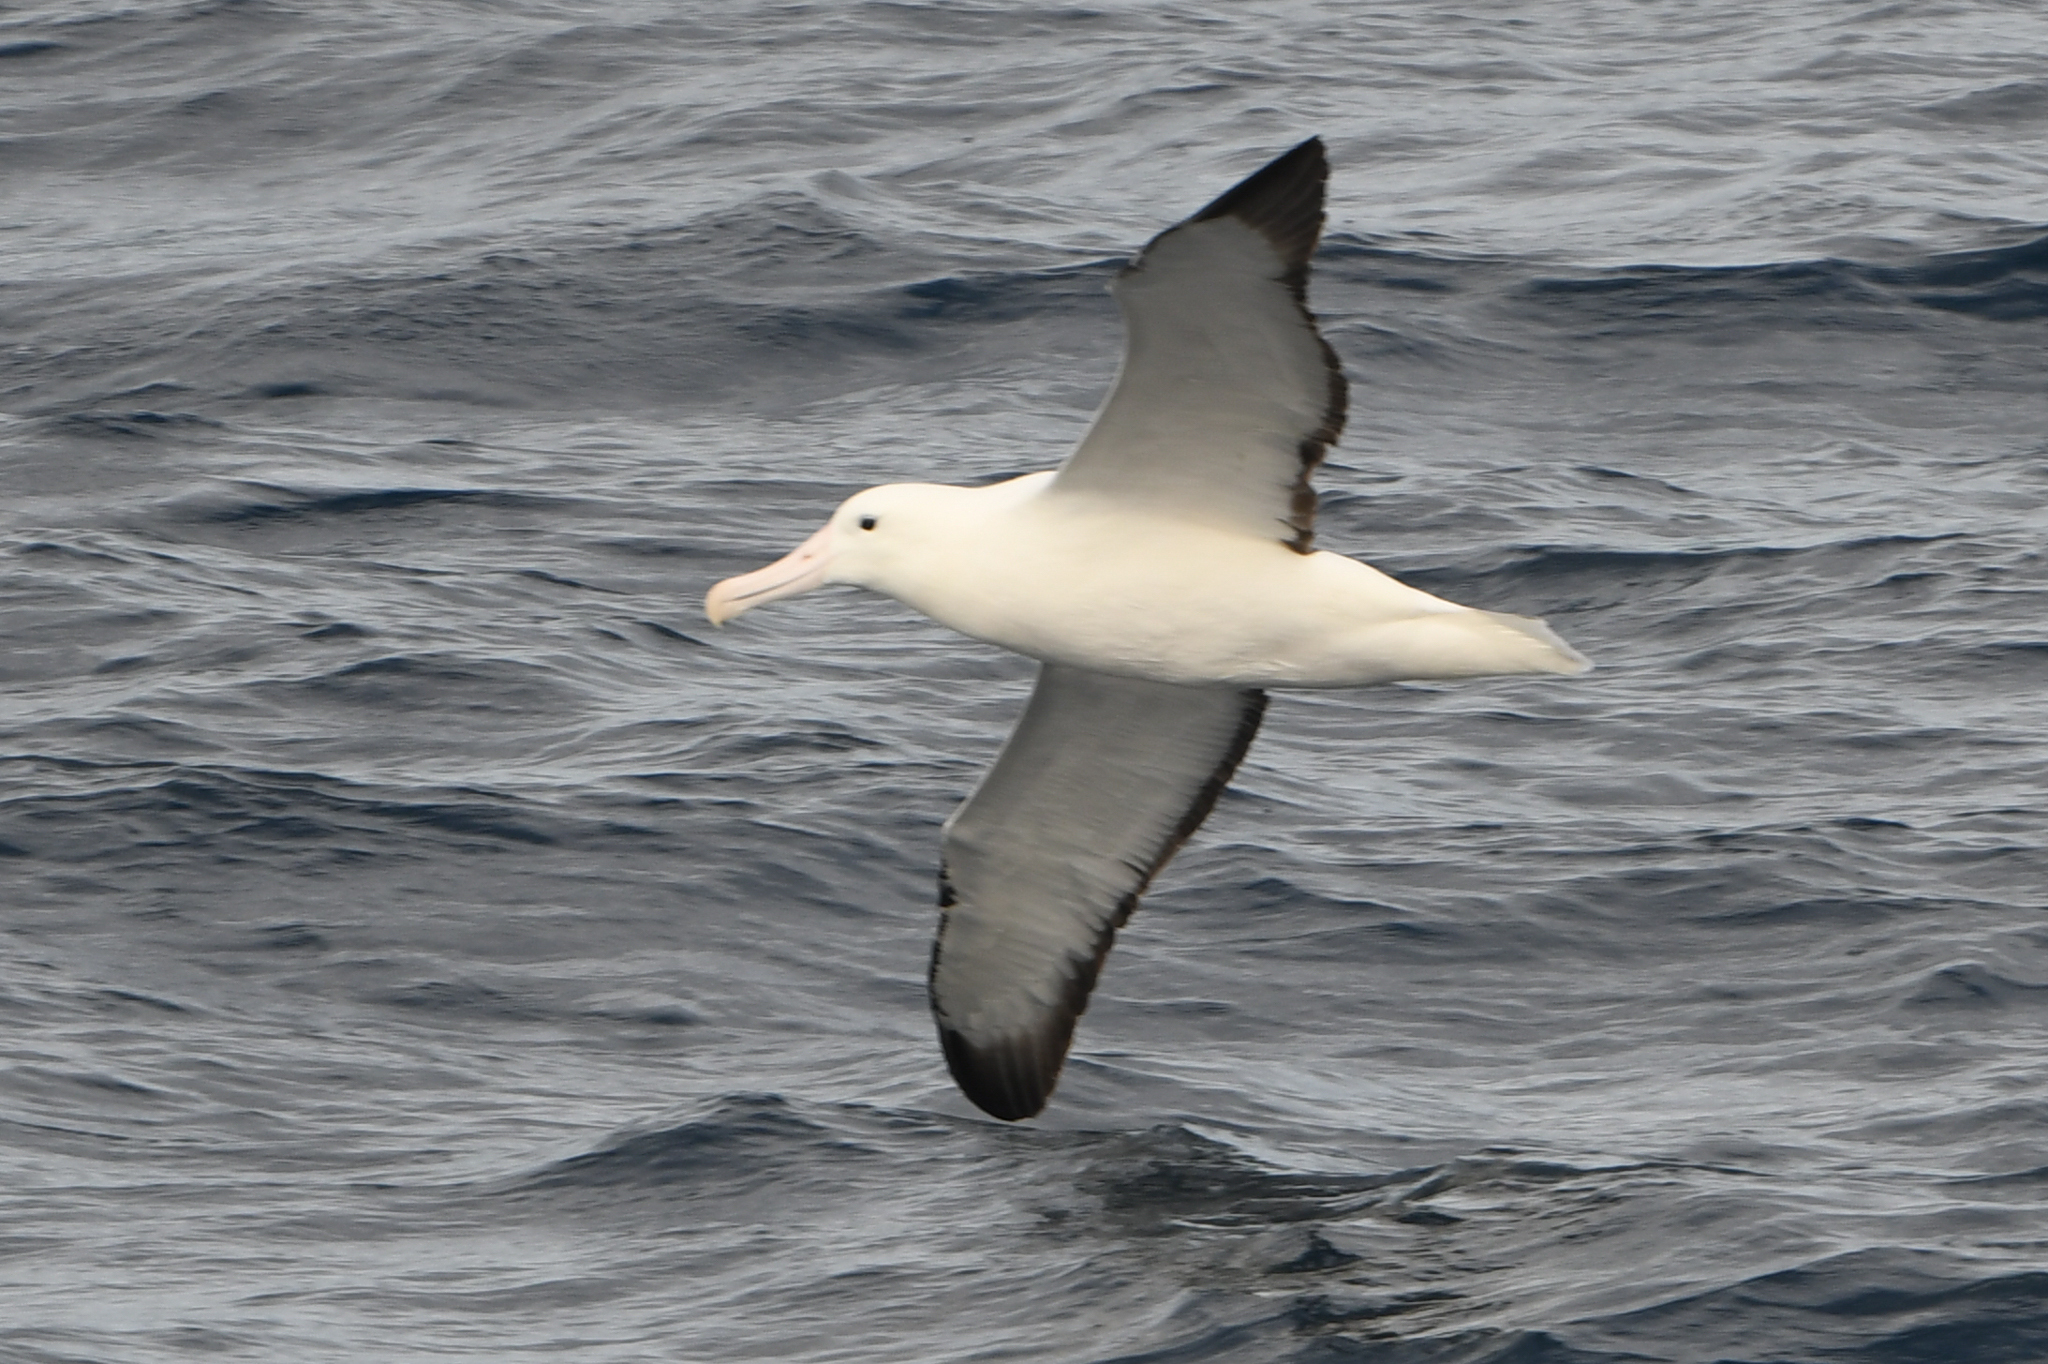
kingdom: Animalia
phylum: Chordata
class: Aves
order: Procellariiformes
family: Diomedeidae
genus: Diomedea
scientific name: Diomedea epomophora
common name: Southern royal albatross
